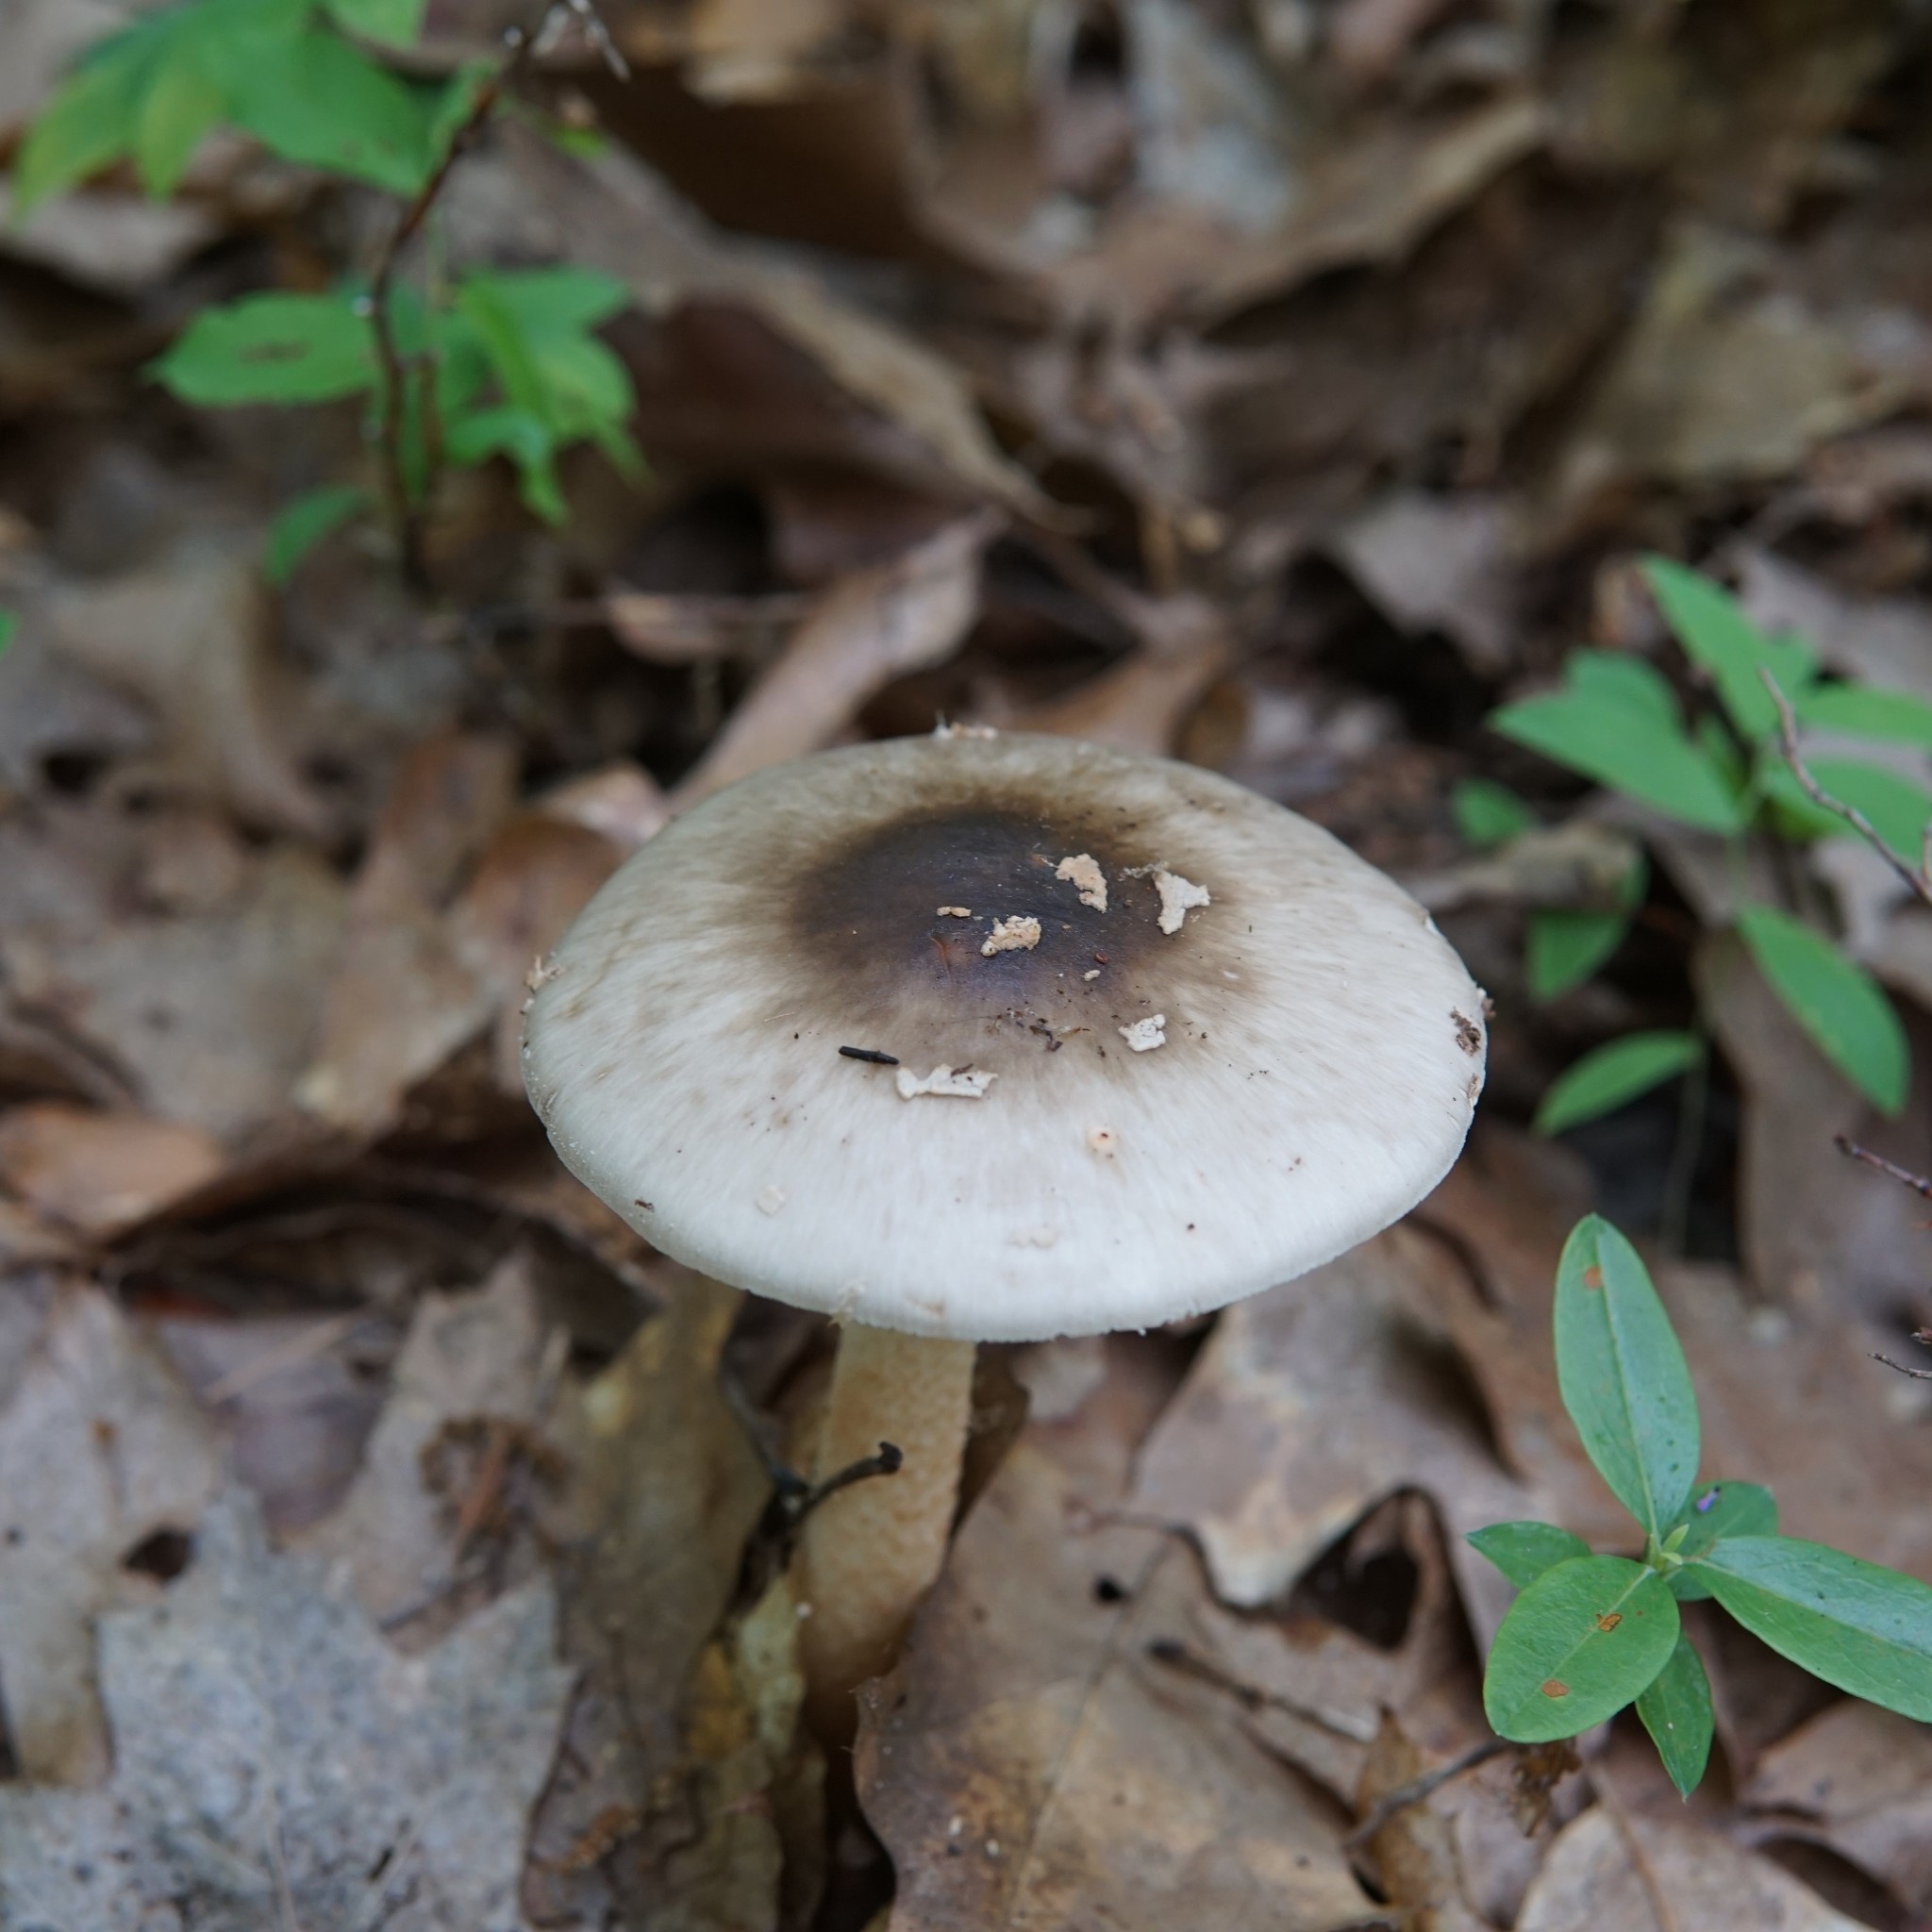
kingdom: Fungi
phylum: Basidiomycota
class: Agaricomycetes
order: Agaricales
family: Amanitaceae
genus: Amanita
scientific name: Amanita brunnescens
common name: Brown american star-footed amanita
